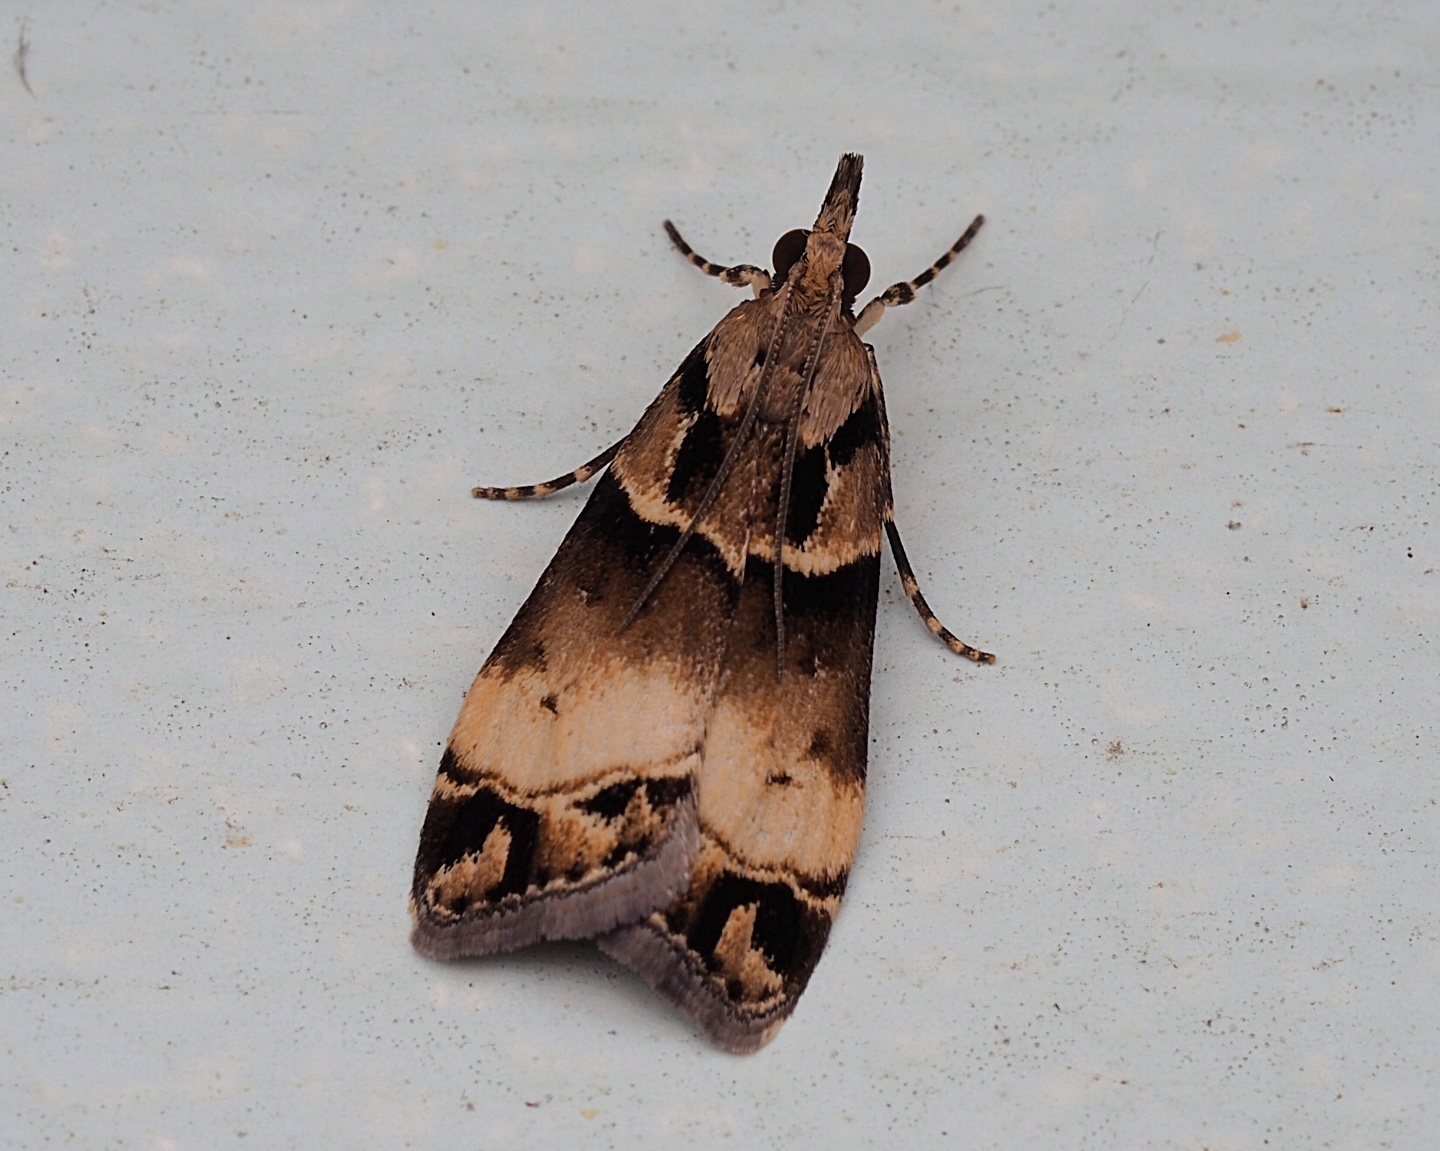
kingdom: Animalia
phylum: Arthropoda
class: Insecta
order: Lepidoptera
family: Crambidae
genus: Eudonia
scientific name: Eudonia periphanes
